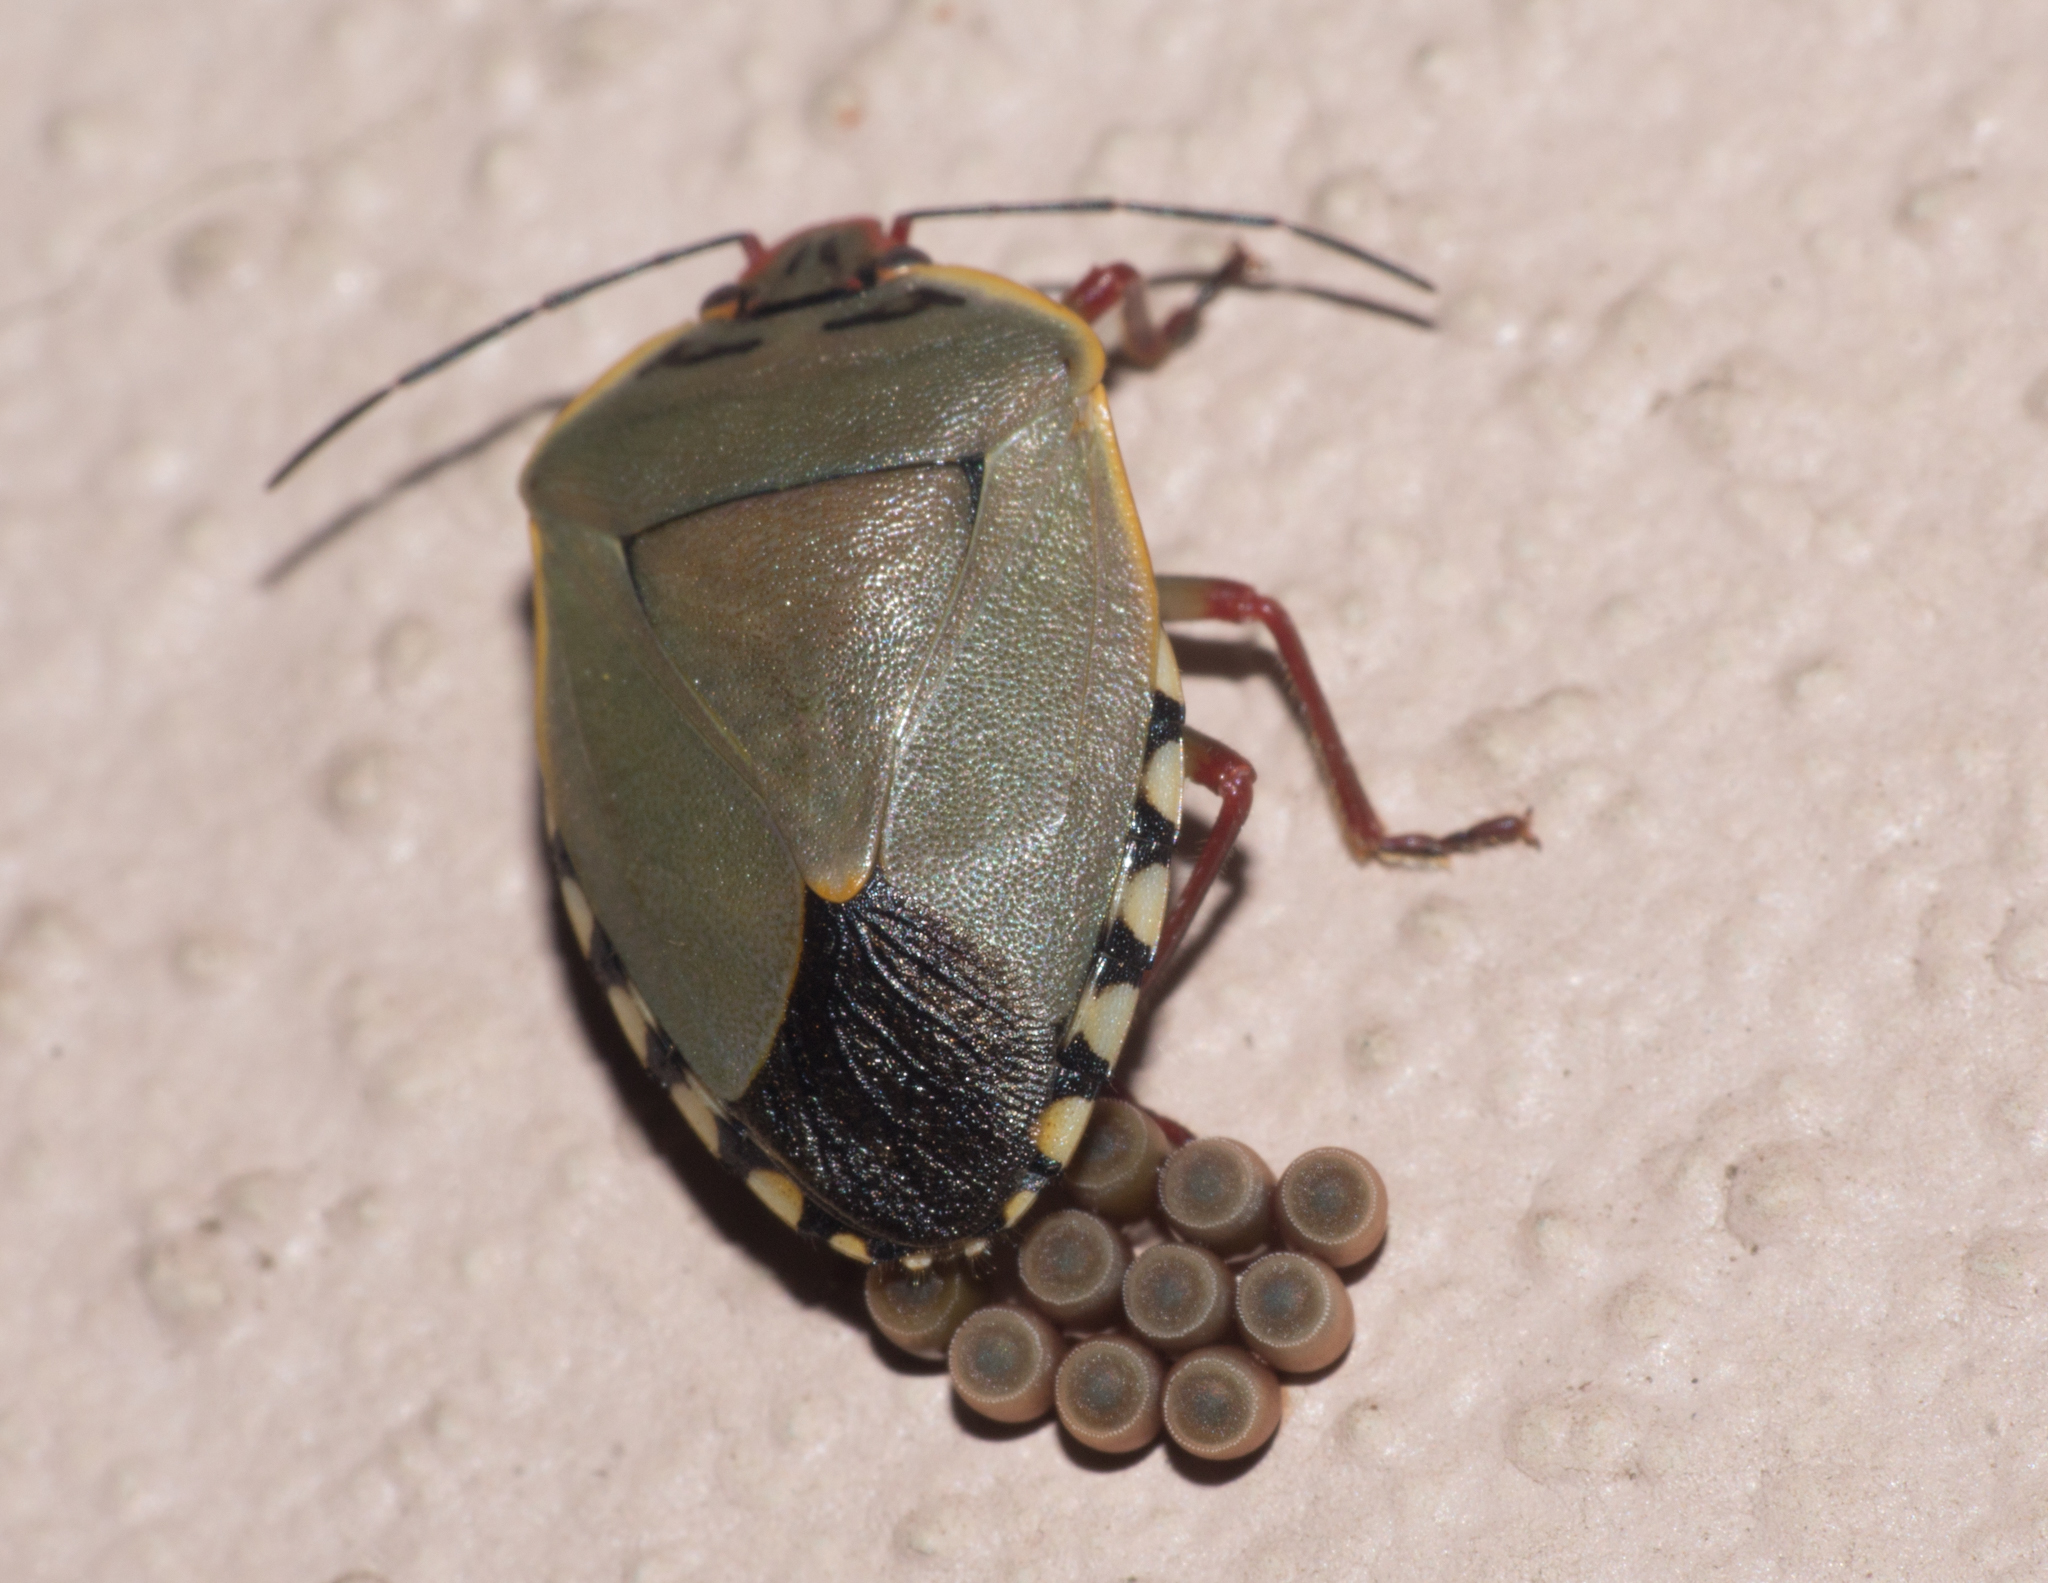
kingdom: Animalia
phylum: Arthropoda
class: Insecta
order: Hemiptera
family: Pentatomidae
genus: Chinavia
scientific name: Chinavia erythrocnemis
